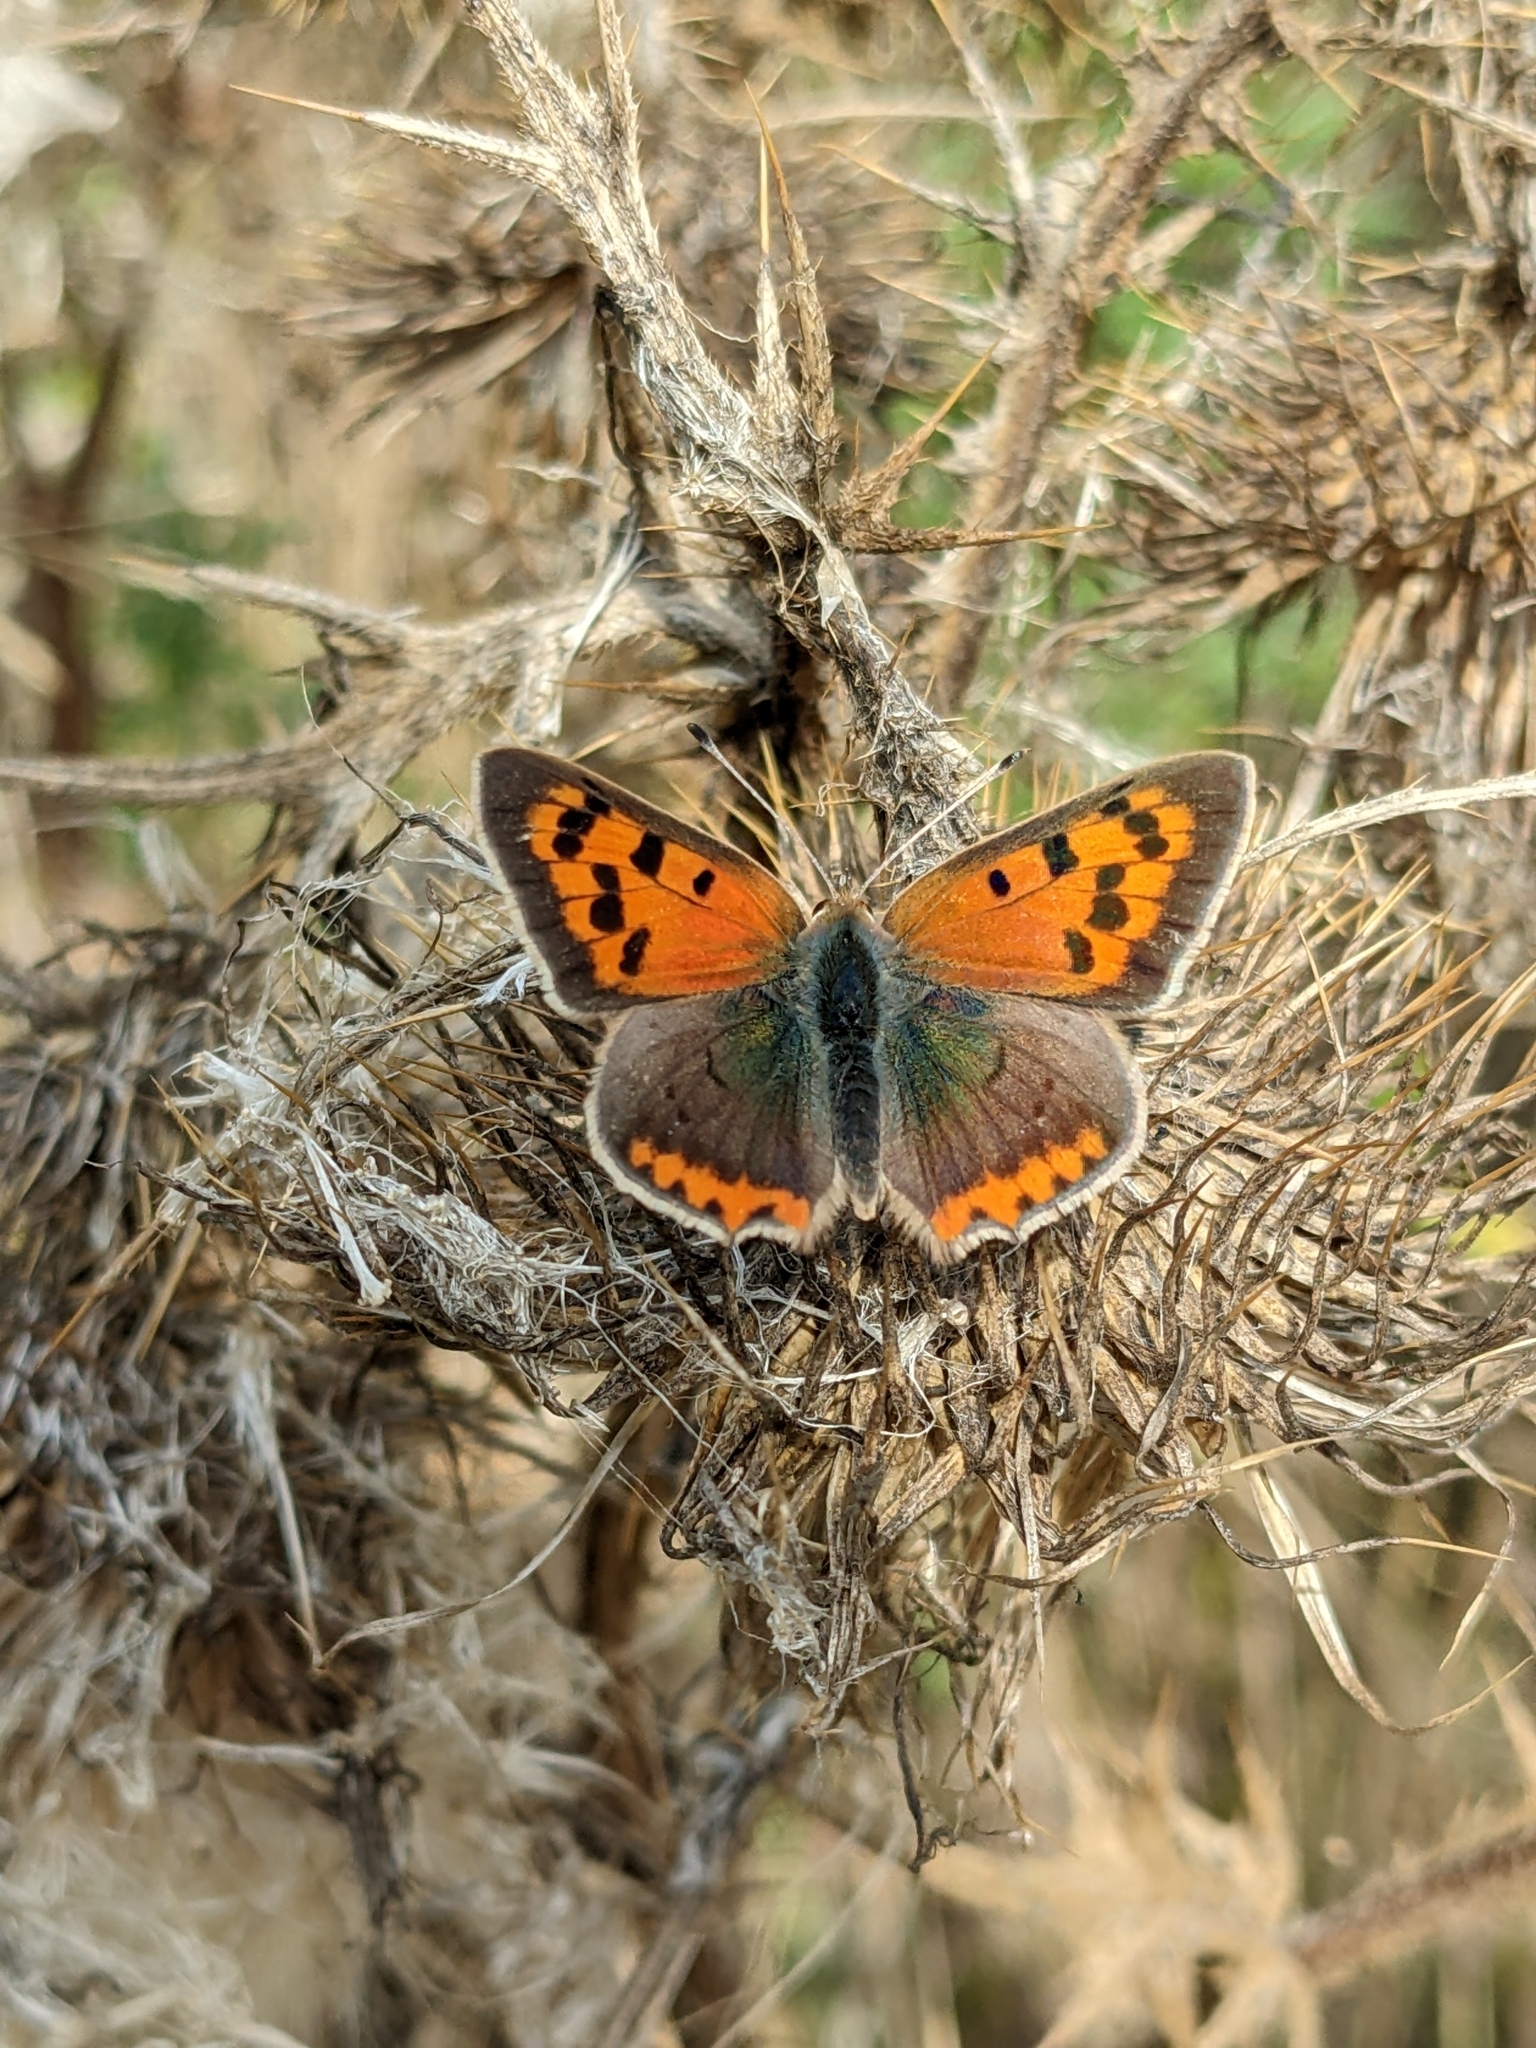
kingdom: Animalia
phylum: Arthropoda
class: Insecta
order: Lepidoptera
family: Lycaenidae
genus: Lycaena
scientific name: Lycaena phlaeas
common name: Small copper
